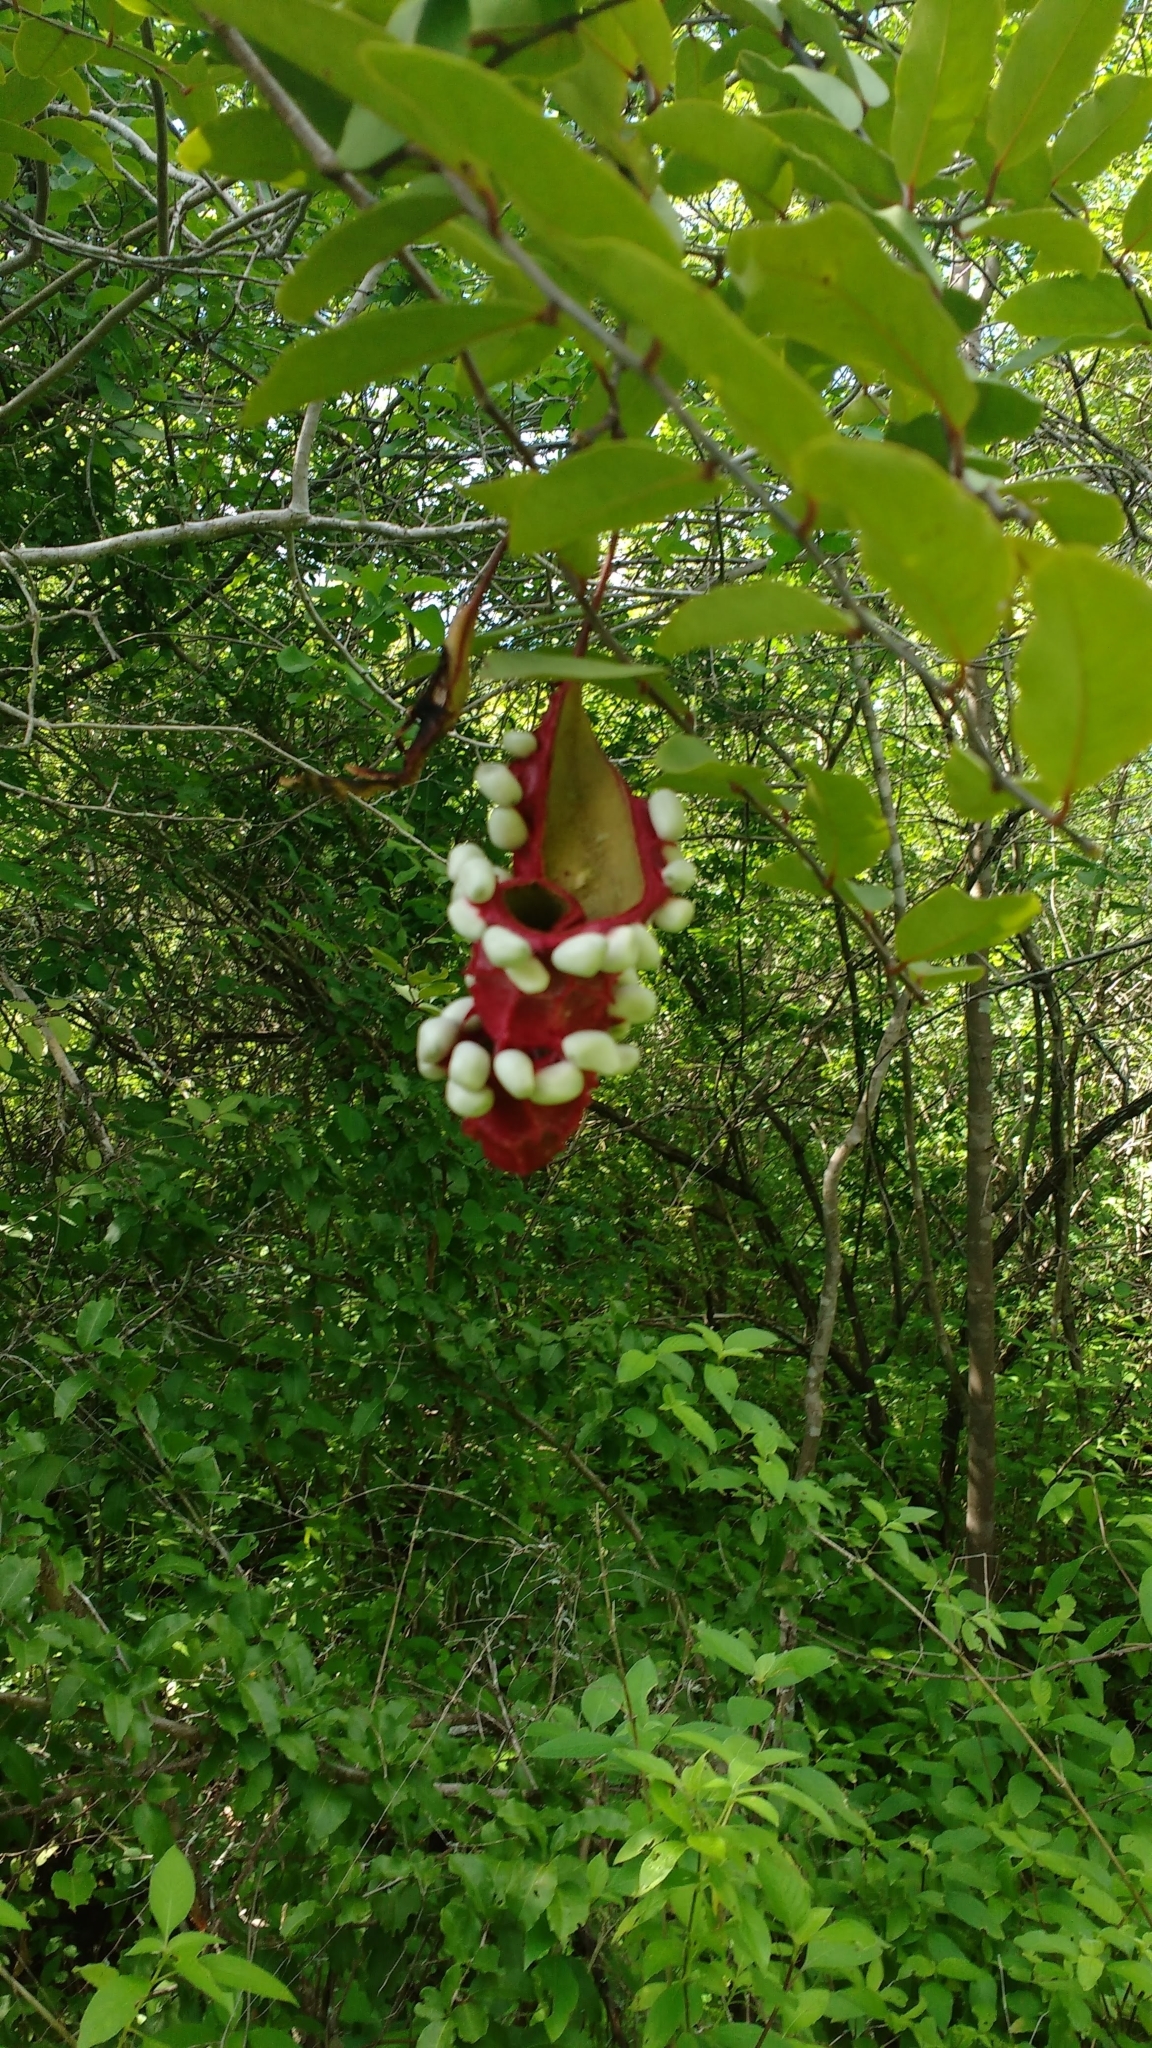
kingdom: Plantae
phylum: Tracheophyta
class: Magnoliopsida
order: Brassicales
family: Capparaceae
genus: Cynophalla
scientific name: Cynophalla flexuosa
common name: Capertree
